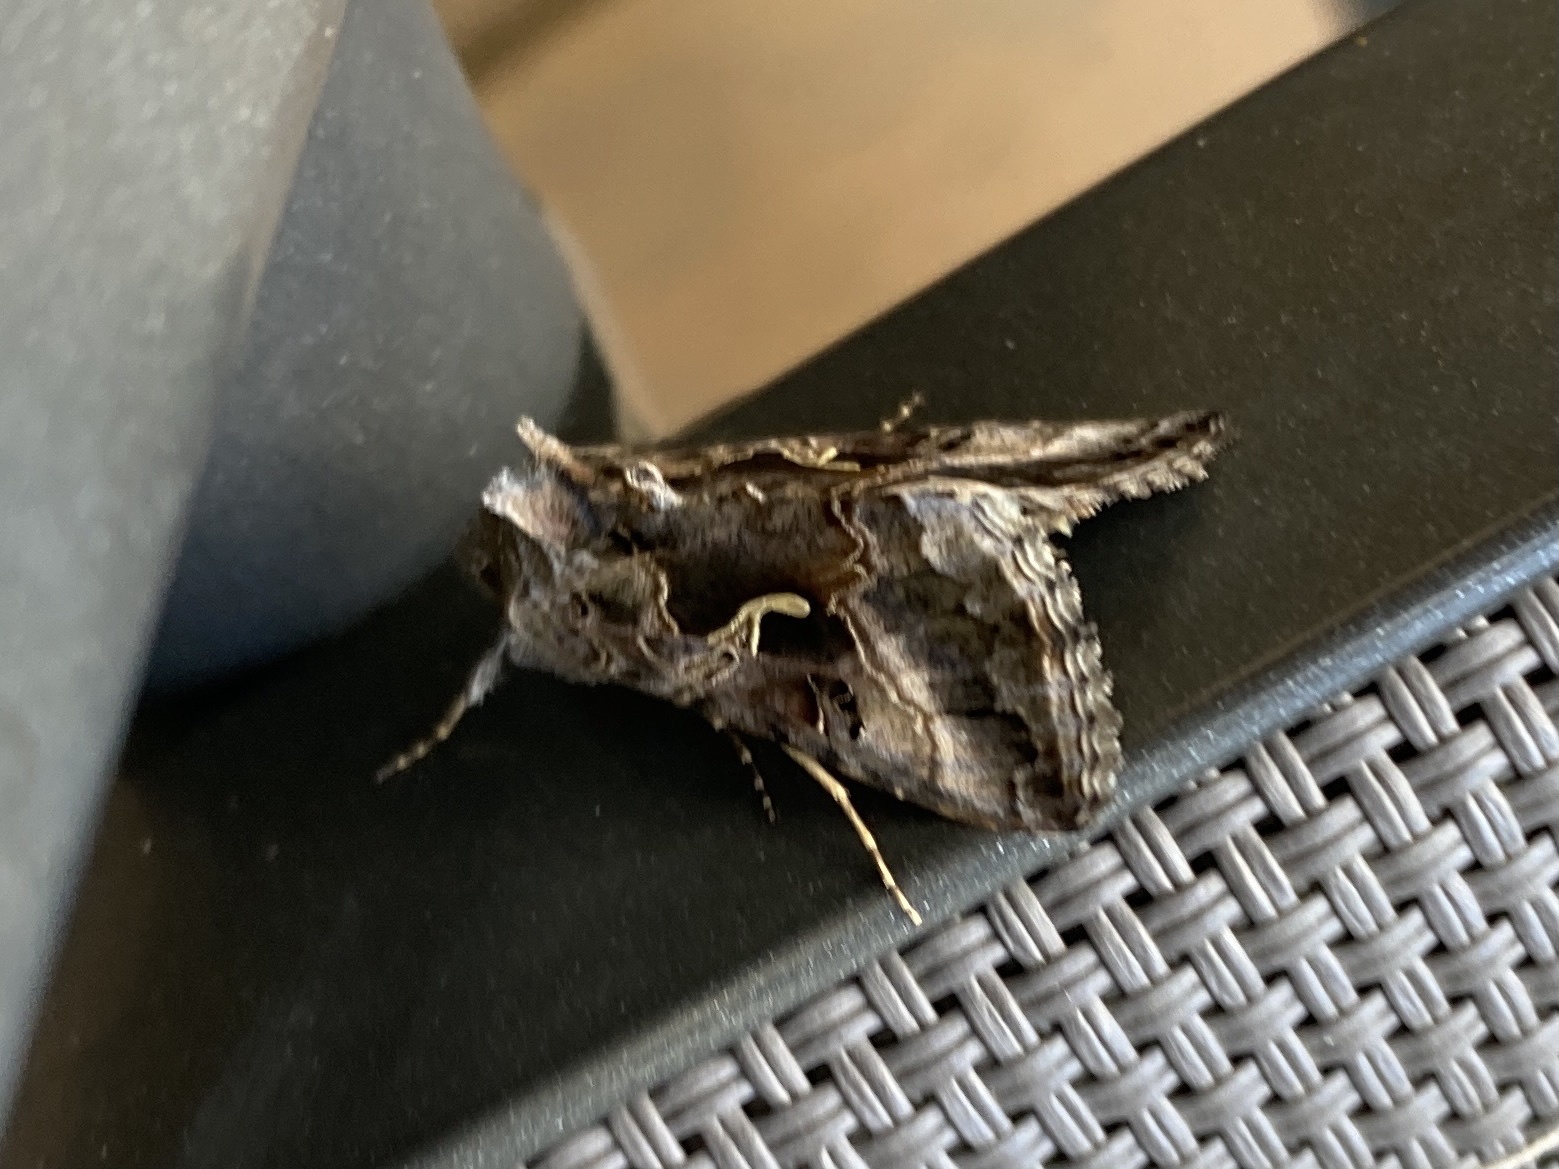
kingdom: Animalia
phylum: Arthropoda
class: Insecta
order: Lepidoptera
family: Noctuidae
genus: Autographa
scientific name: Autographa gamma
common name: Silver y
